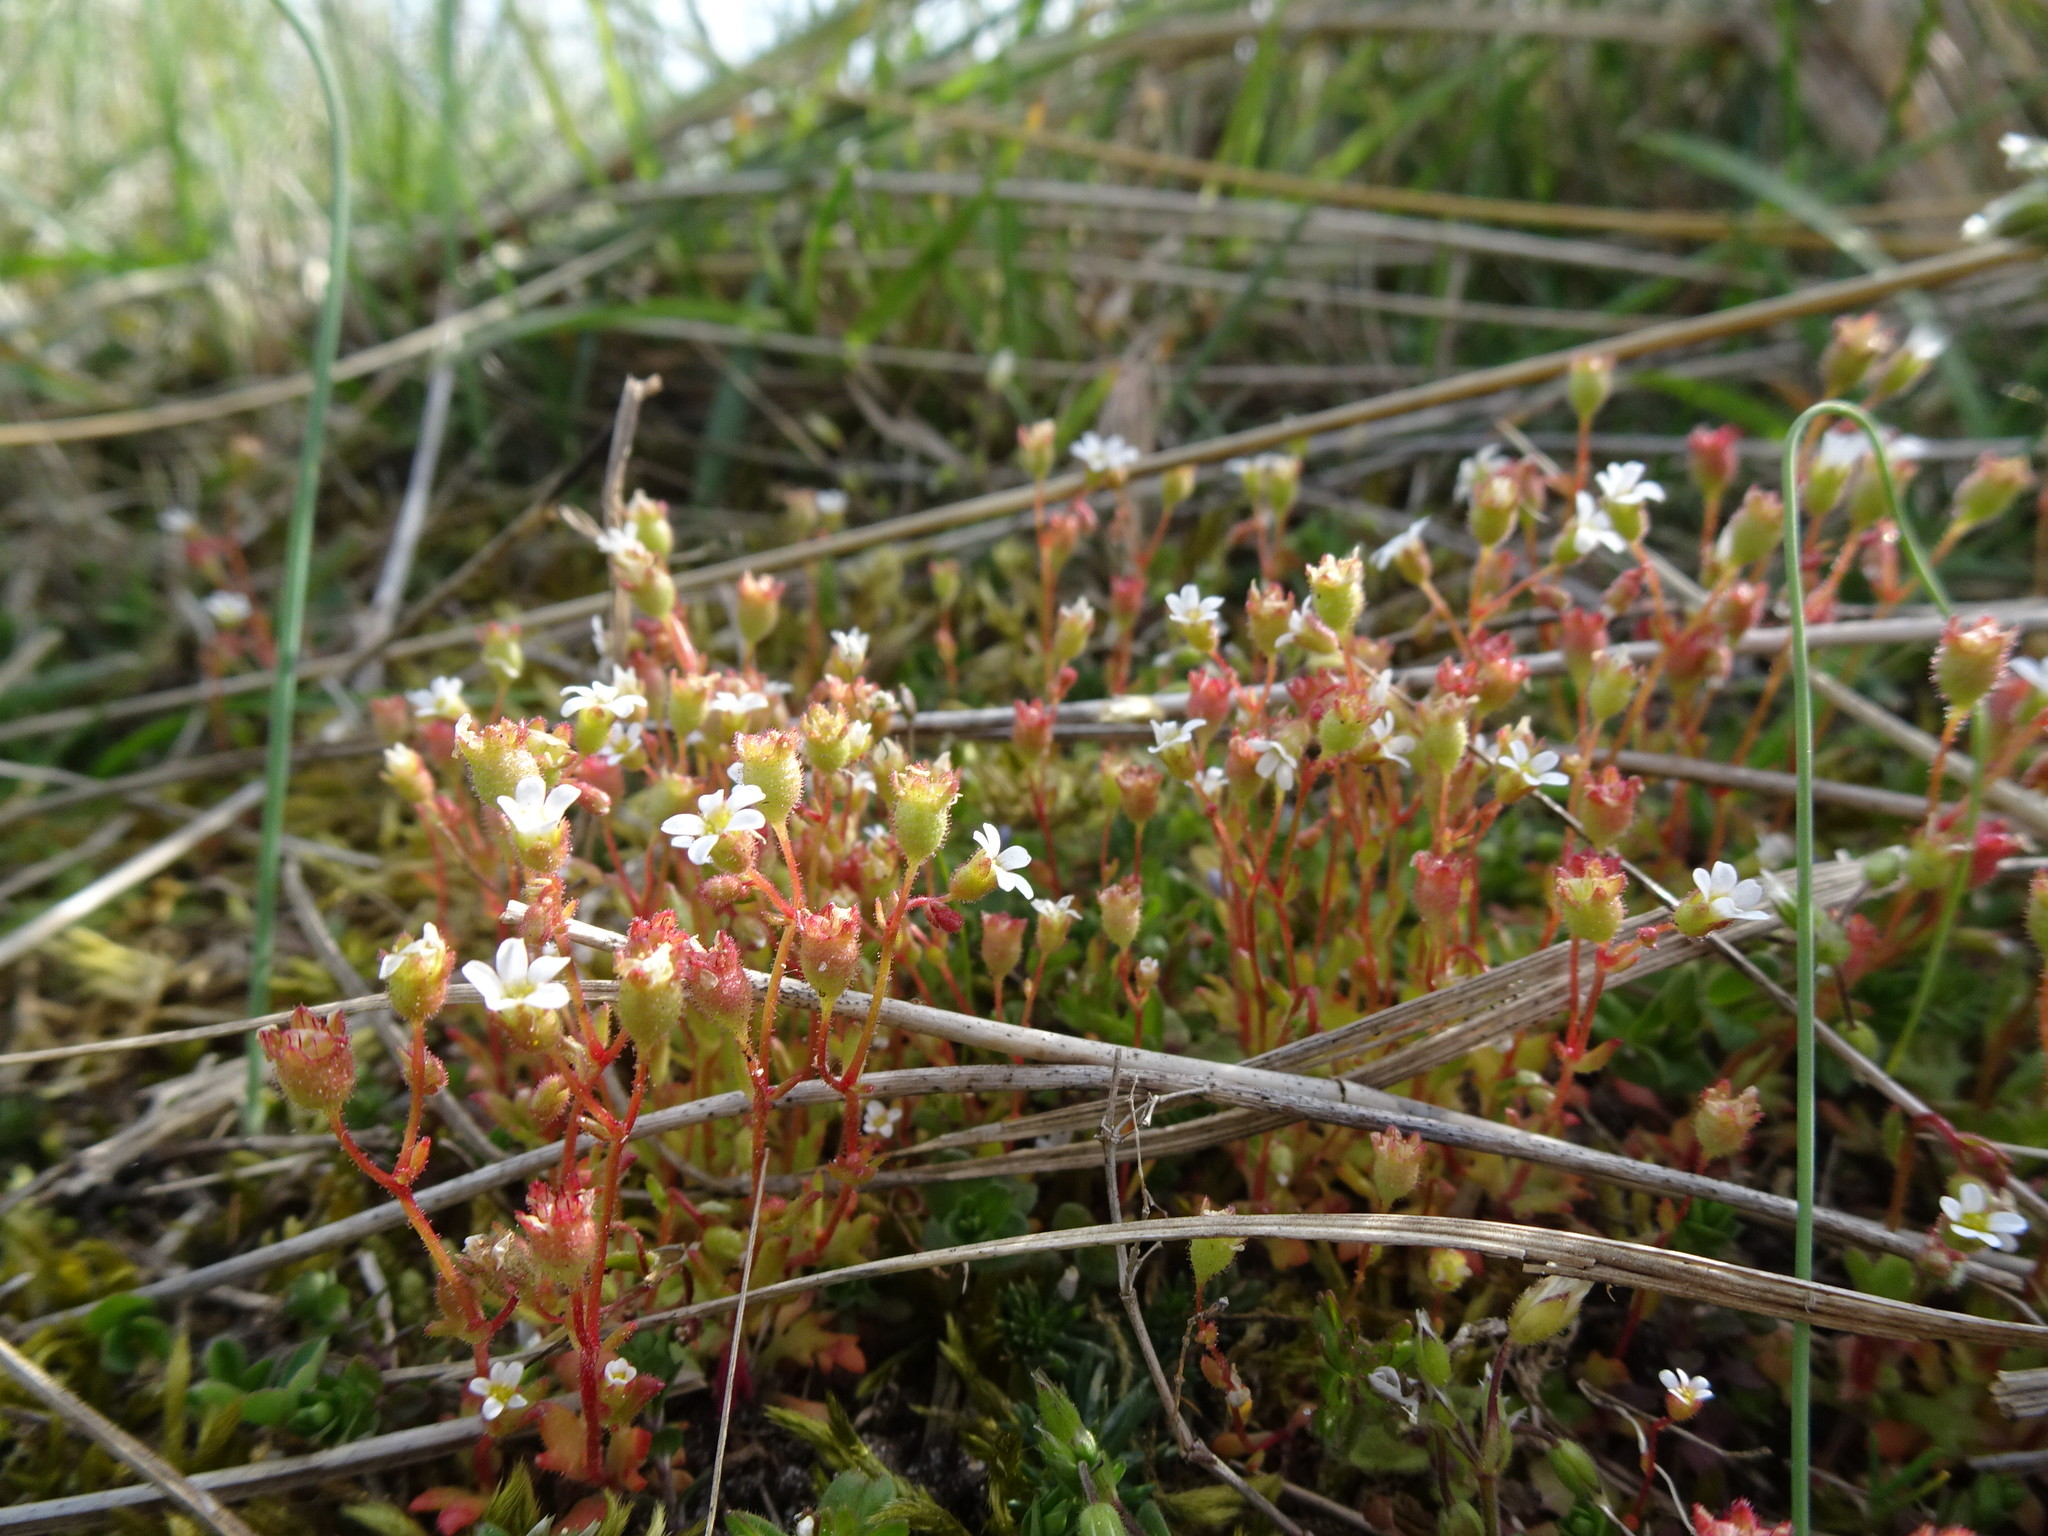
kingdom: Plantae
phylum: Tracheophyta
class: Magnoliopsida
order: Saxifragales
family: Saxifragaceae
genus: Saxifraga
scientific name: Saxifraga tridactylites
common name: Rue-leaved saxifrage
